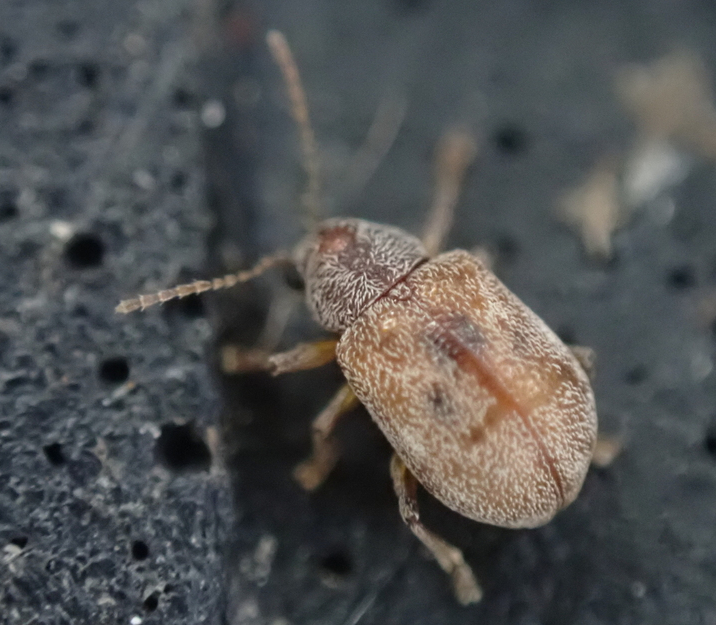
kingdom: Animalia
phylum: Arthropoda
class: Insecta
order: Coleoptera
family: Chrysomelidae
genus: Demotina
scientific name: Demotina modesta
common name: Leaf beetle
